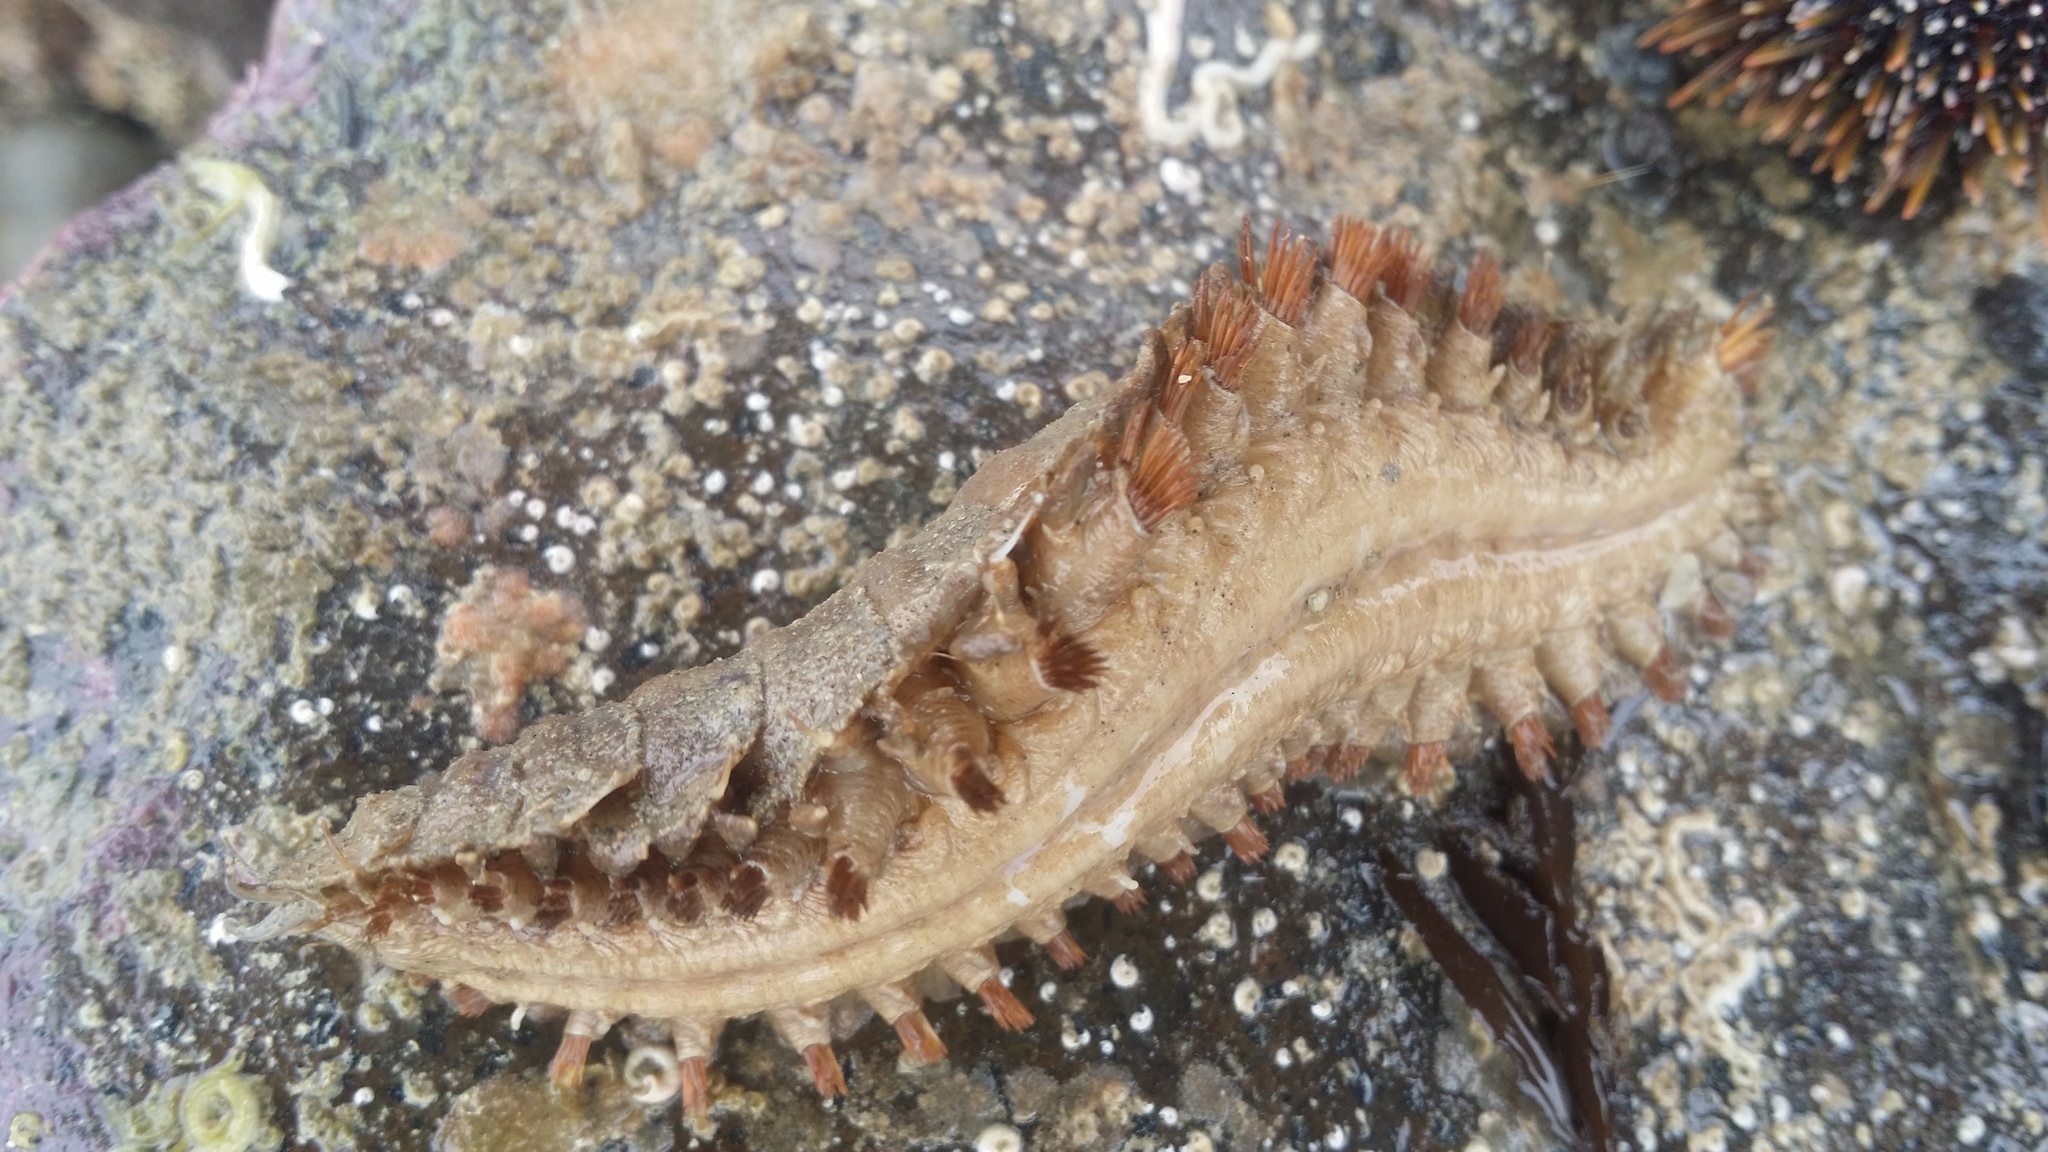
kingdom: Animalia
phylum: Annelida
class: Polychaeta
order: Phyllodocida
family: Polynoidae
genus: Euphione
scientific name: Euphione squamosa
